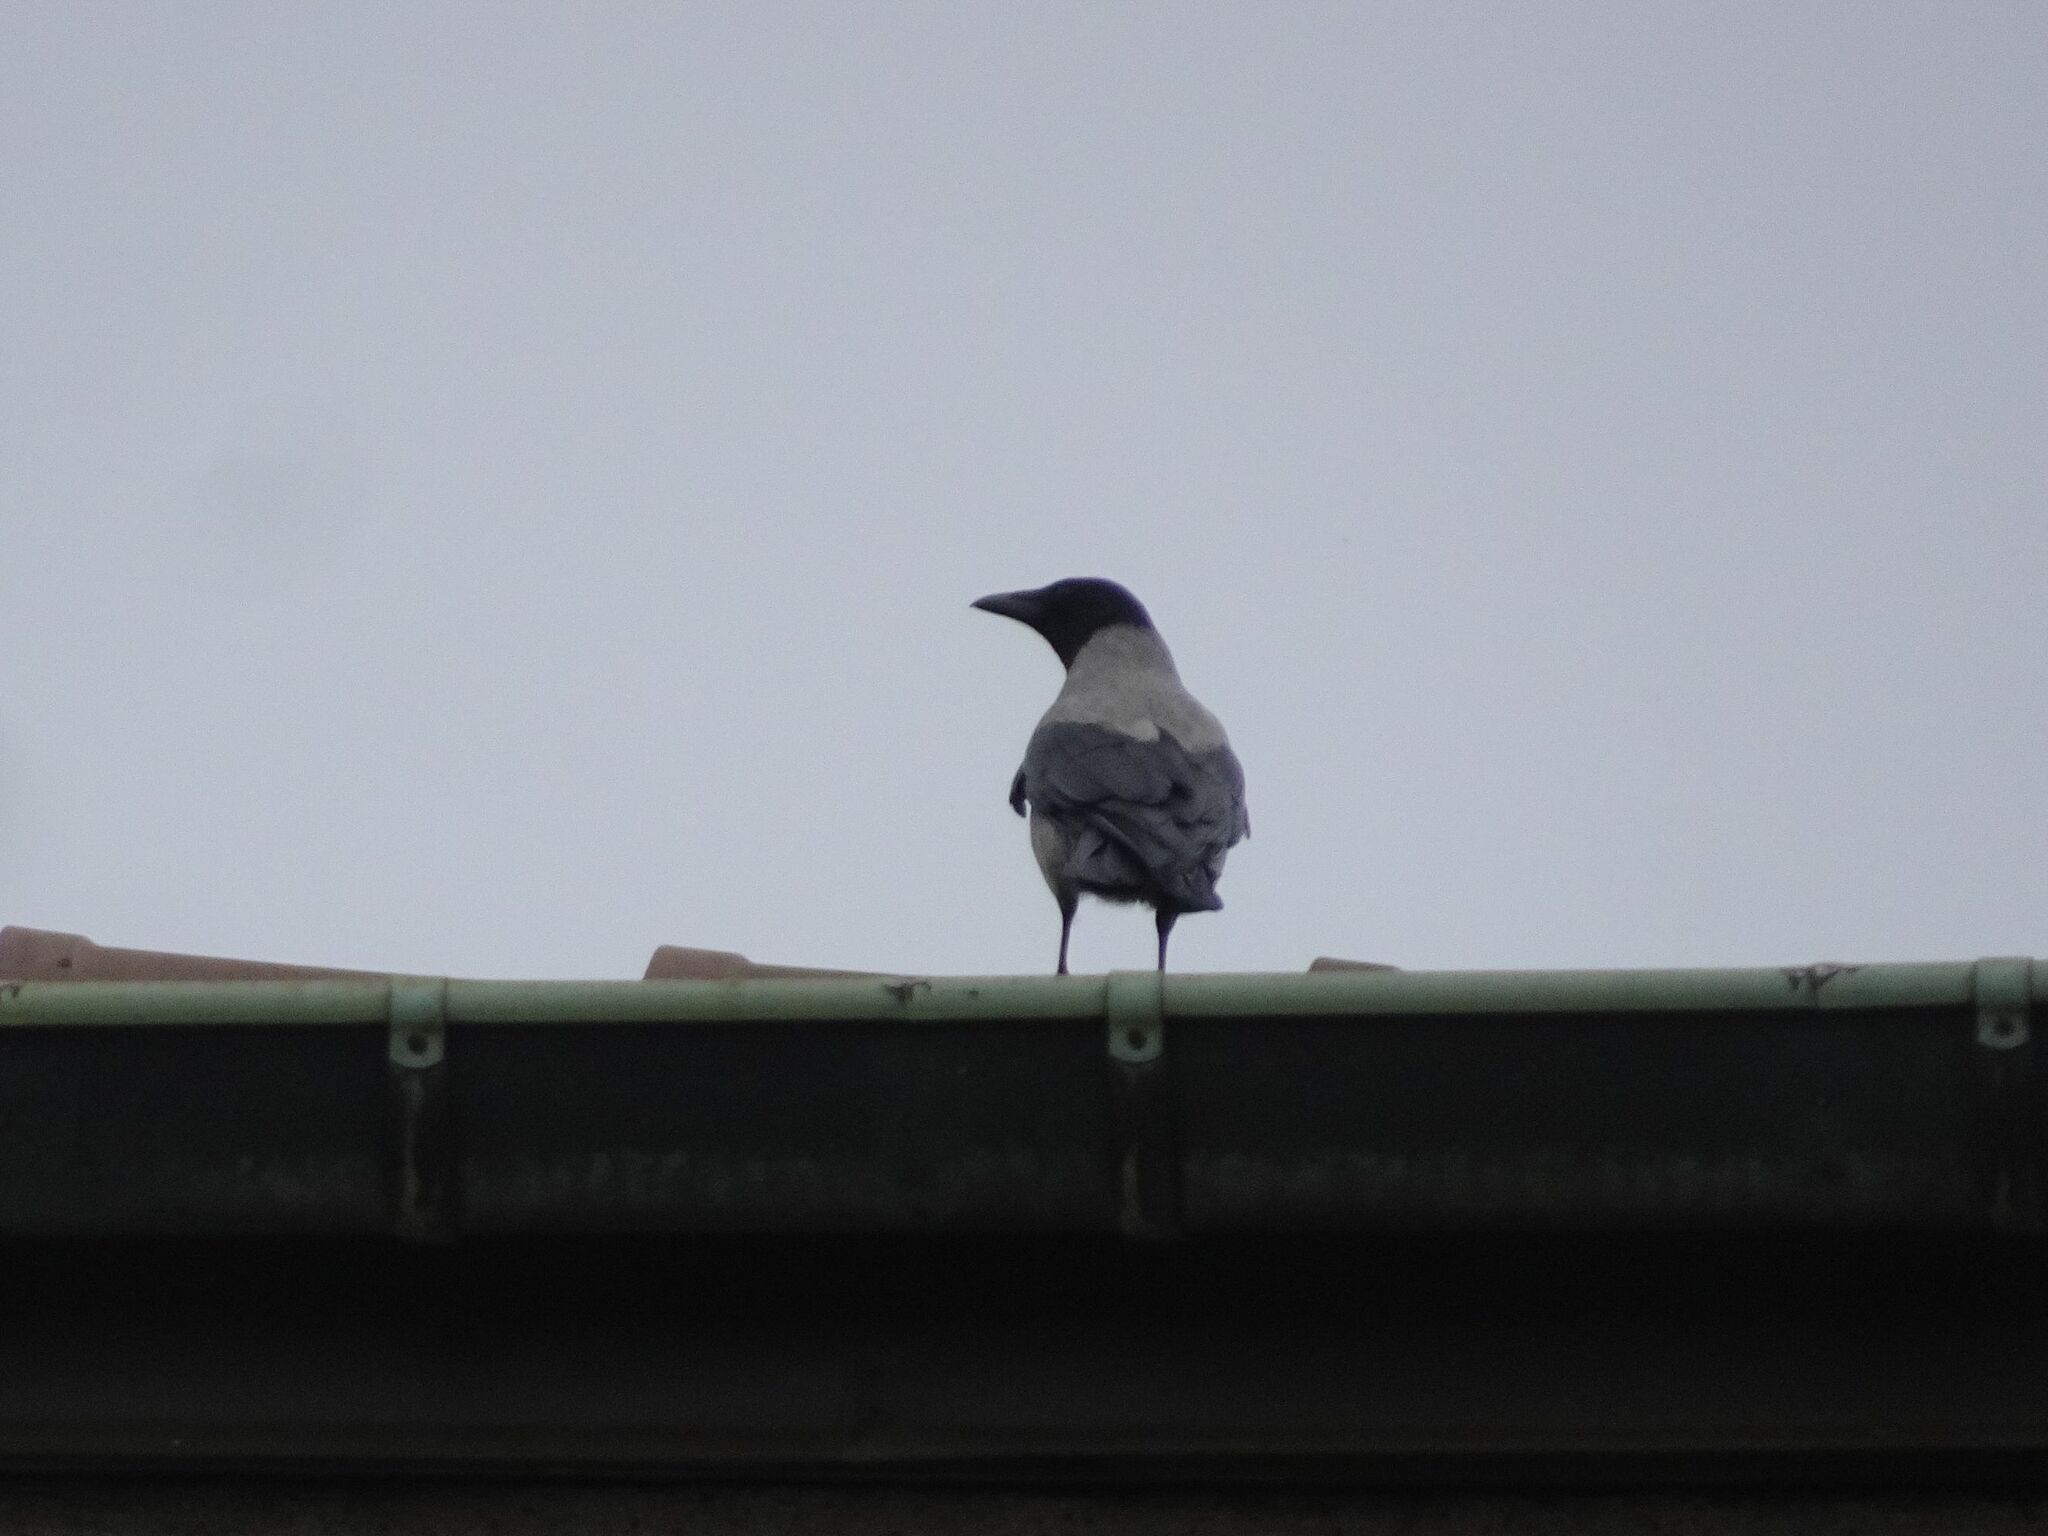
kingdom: Animalia
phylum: Chordata
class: Aves
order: Passeriformes
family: Corvidae
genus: Corvus
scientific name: Corvus cornix
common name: Hooded crow
